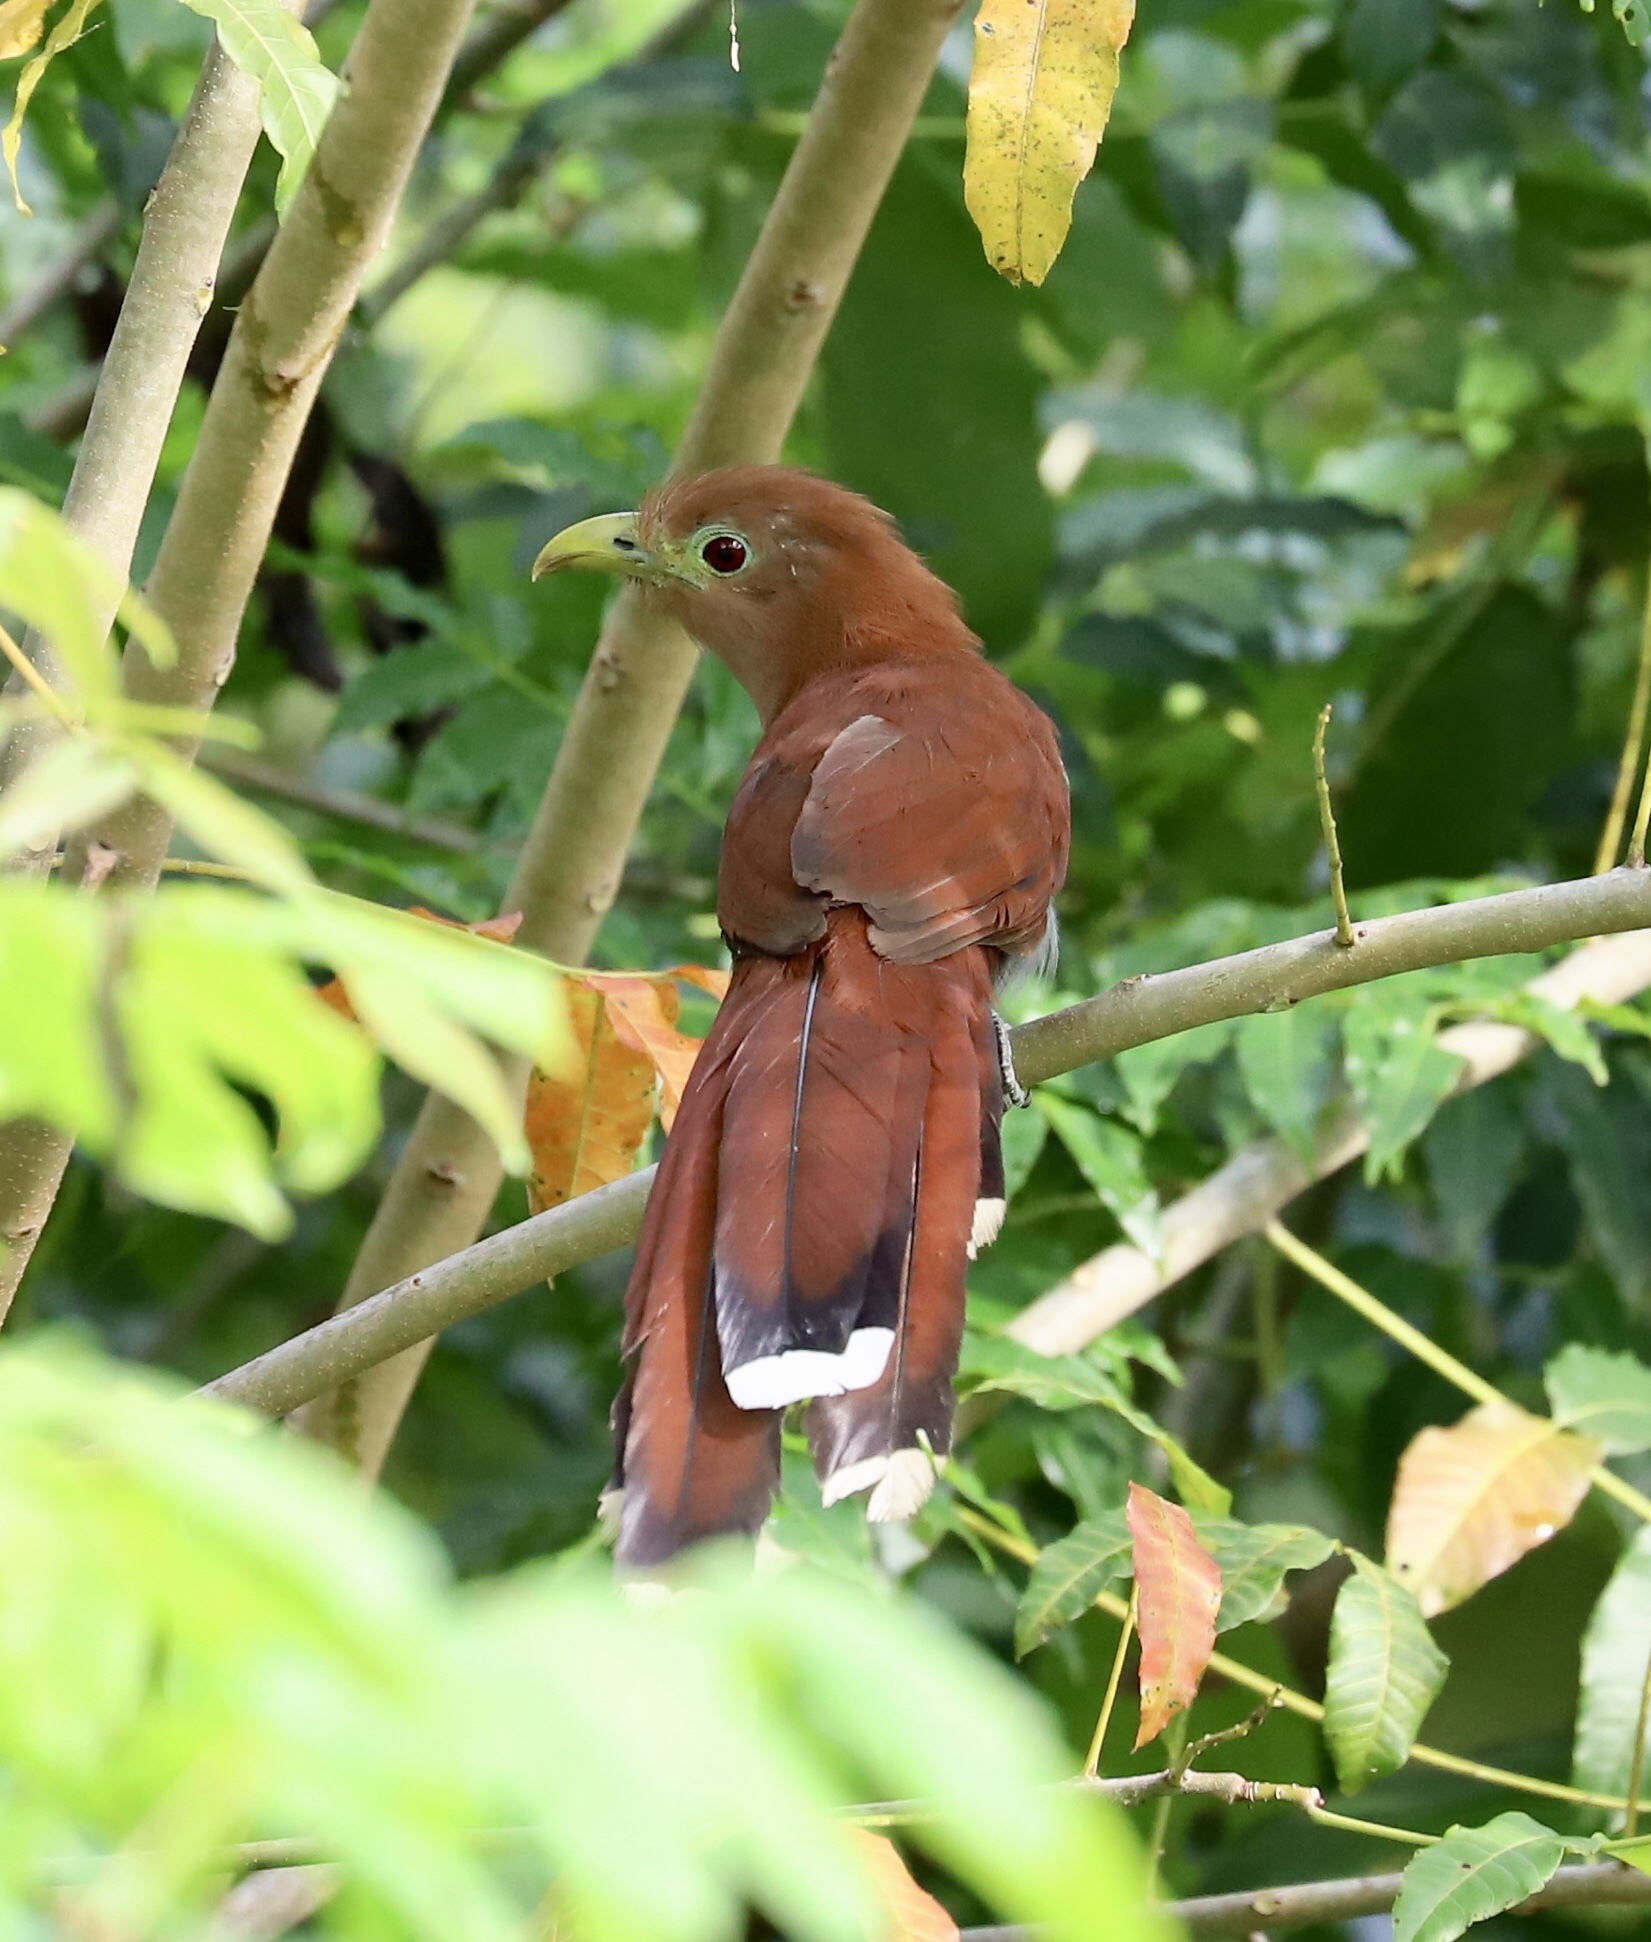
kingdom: Animalia
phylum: Chordata
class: Aves
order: Cuculiformes
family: Cuculidae
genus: Piaya
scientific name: Piaya cayana
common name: Squirrel cuckoo
